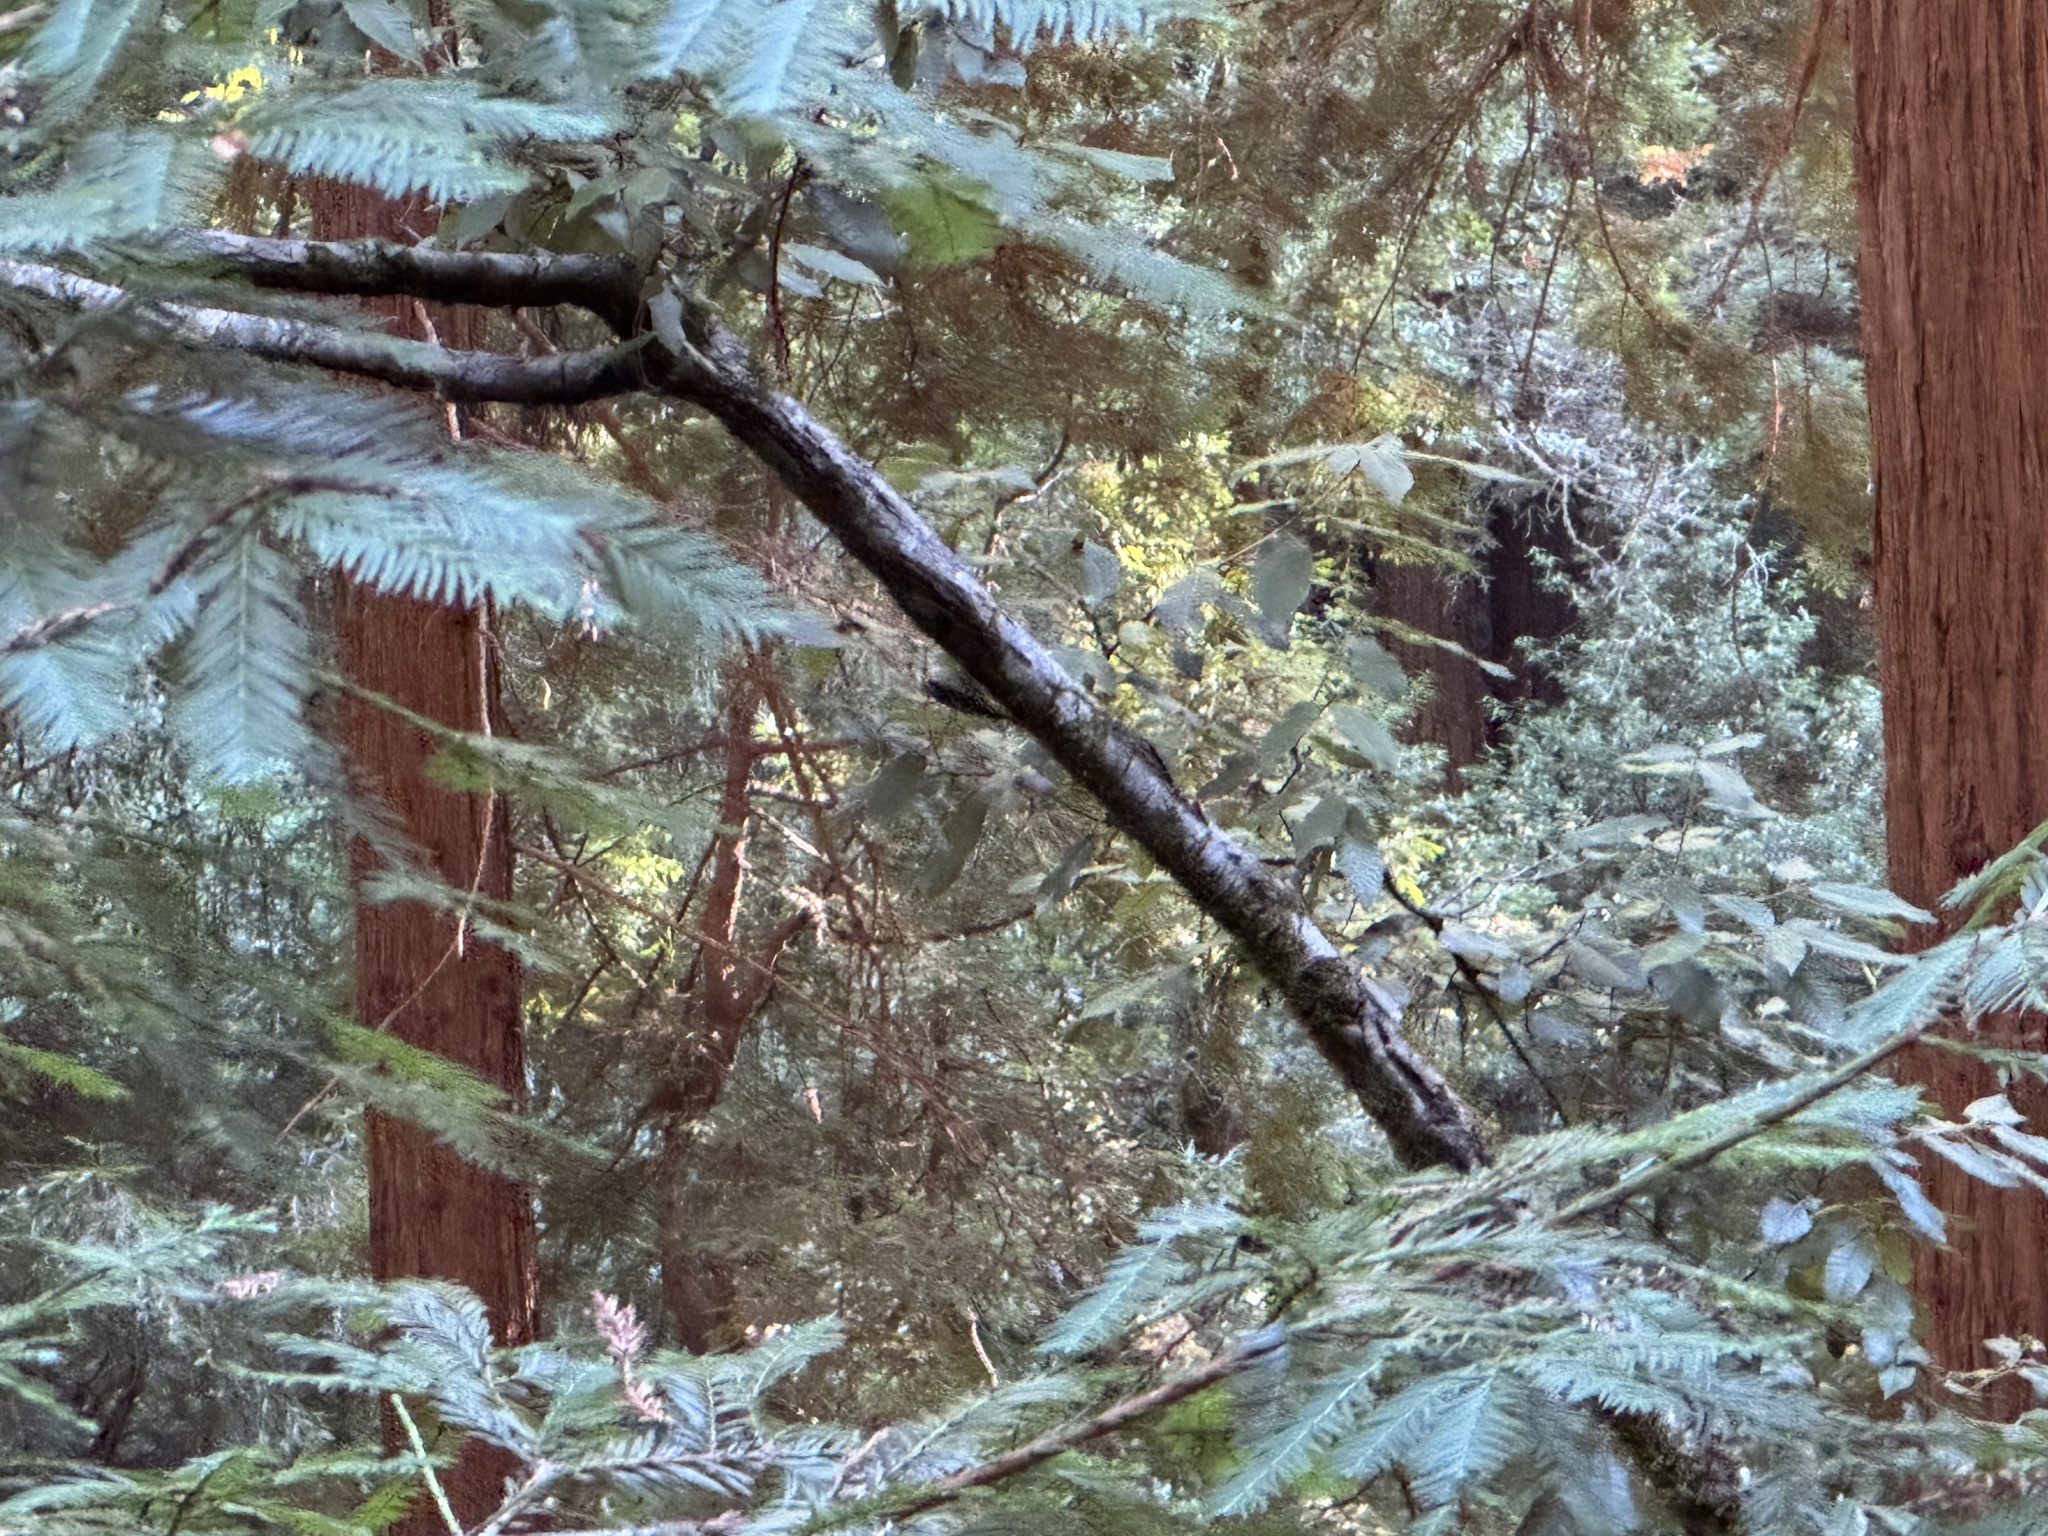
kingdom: Animalia
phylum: Chordata
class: Aves
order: Passeriformes
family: Certhiidae
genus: Certhia
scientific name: Certhia americana
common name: Brown creeper
